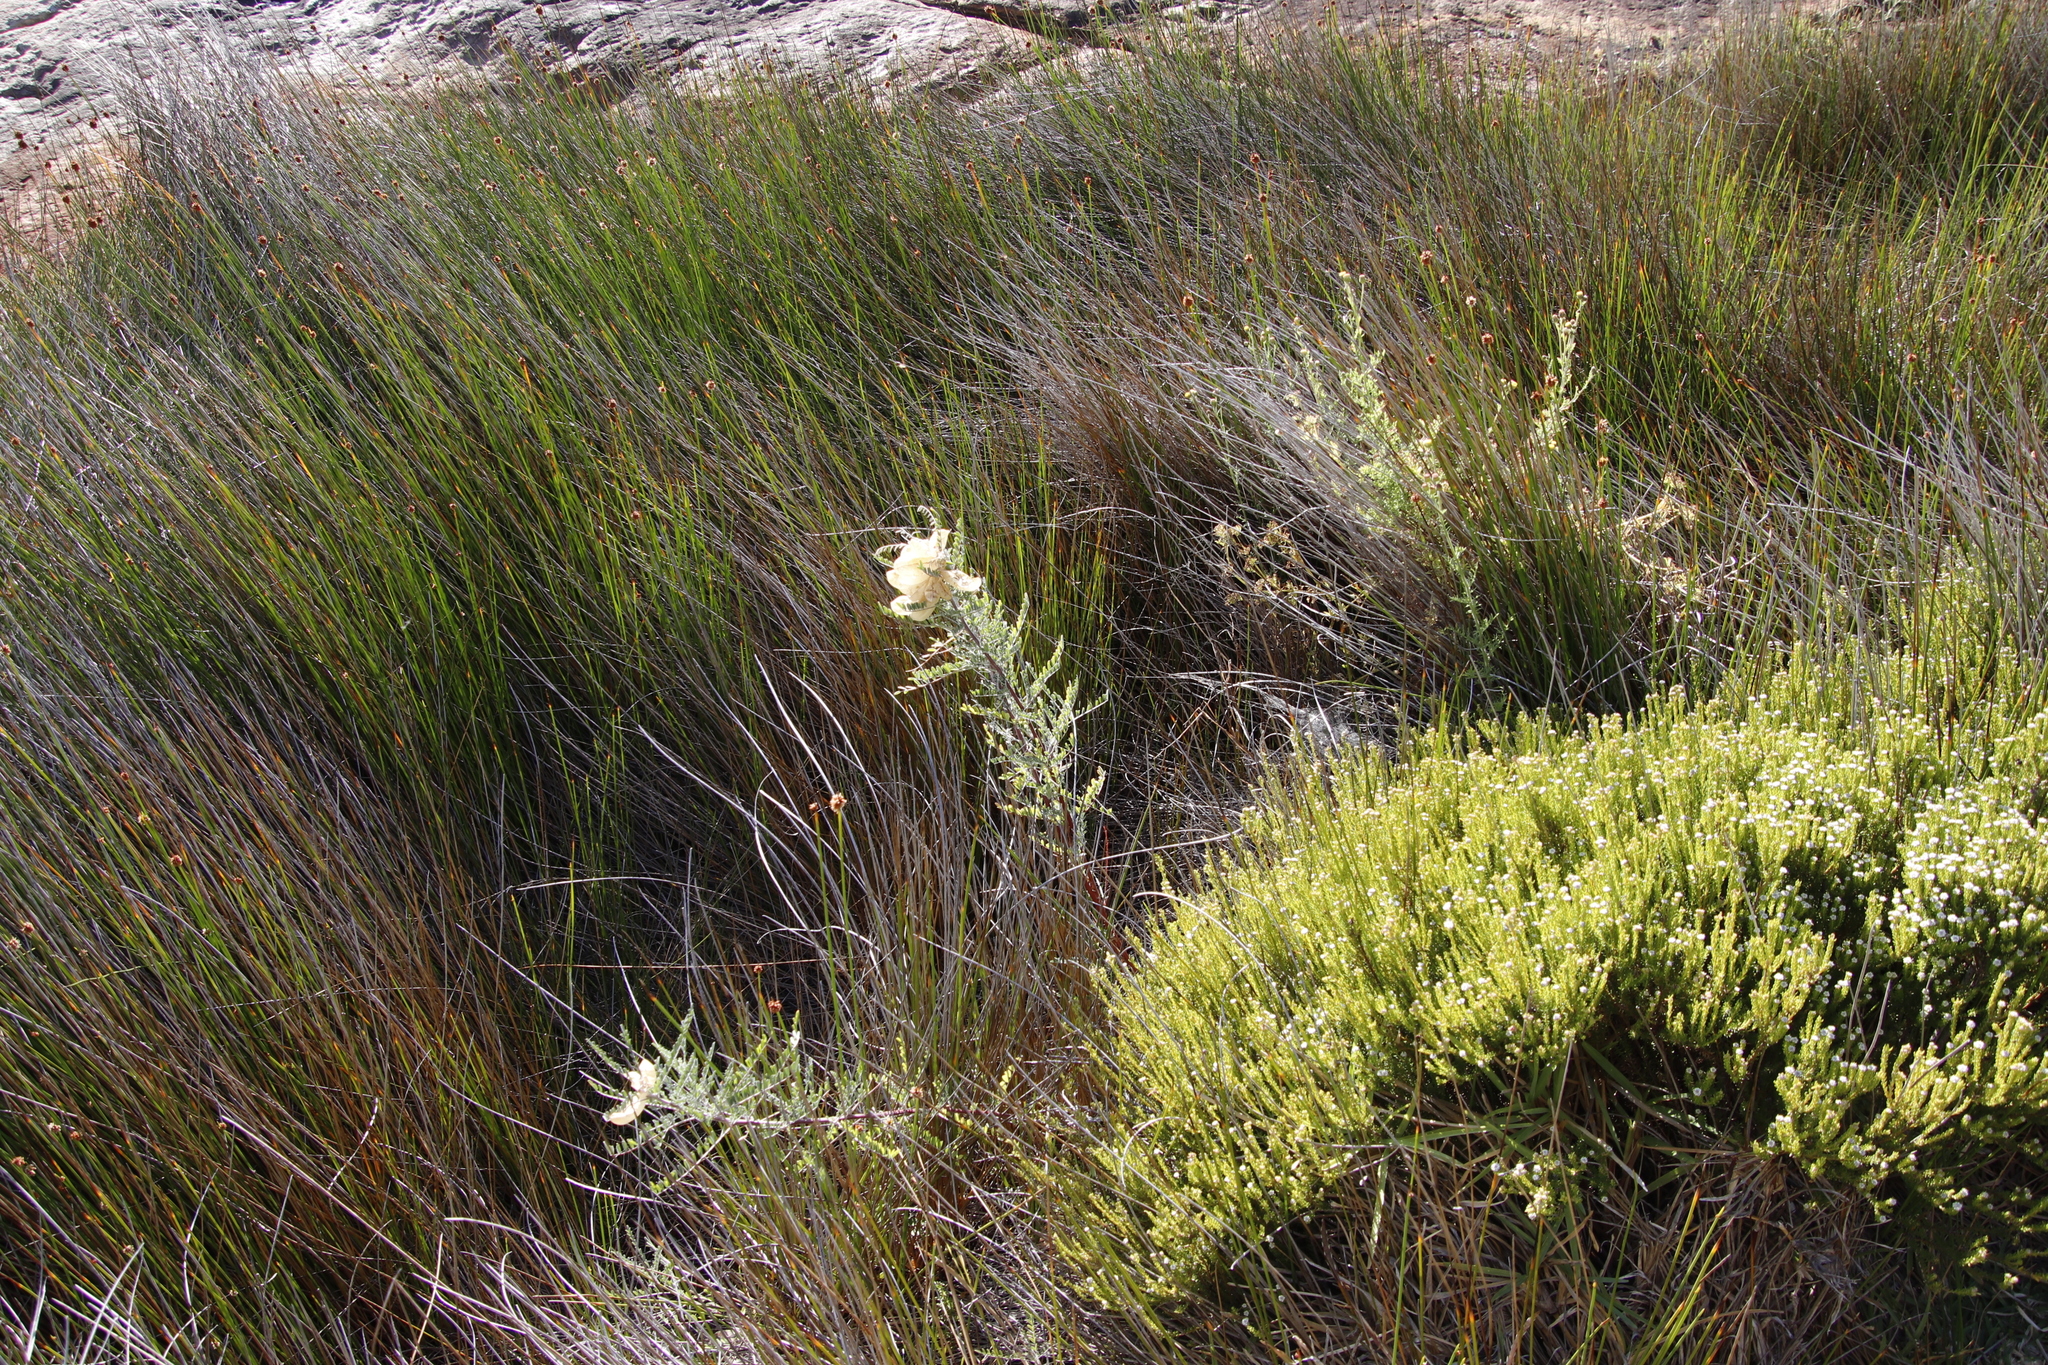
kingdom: Plantae
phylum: Tracheophyta
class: Magnoliopsida
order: Fabales
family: Fabaceae
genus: Lessertia
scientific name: Lessertia frutescens
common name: Balloon-pea
